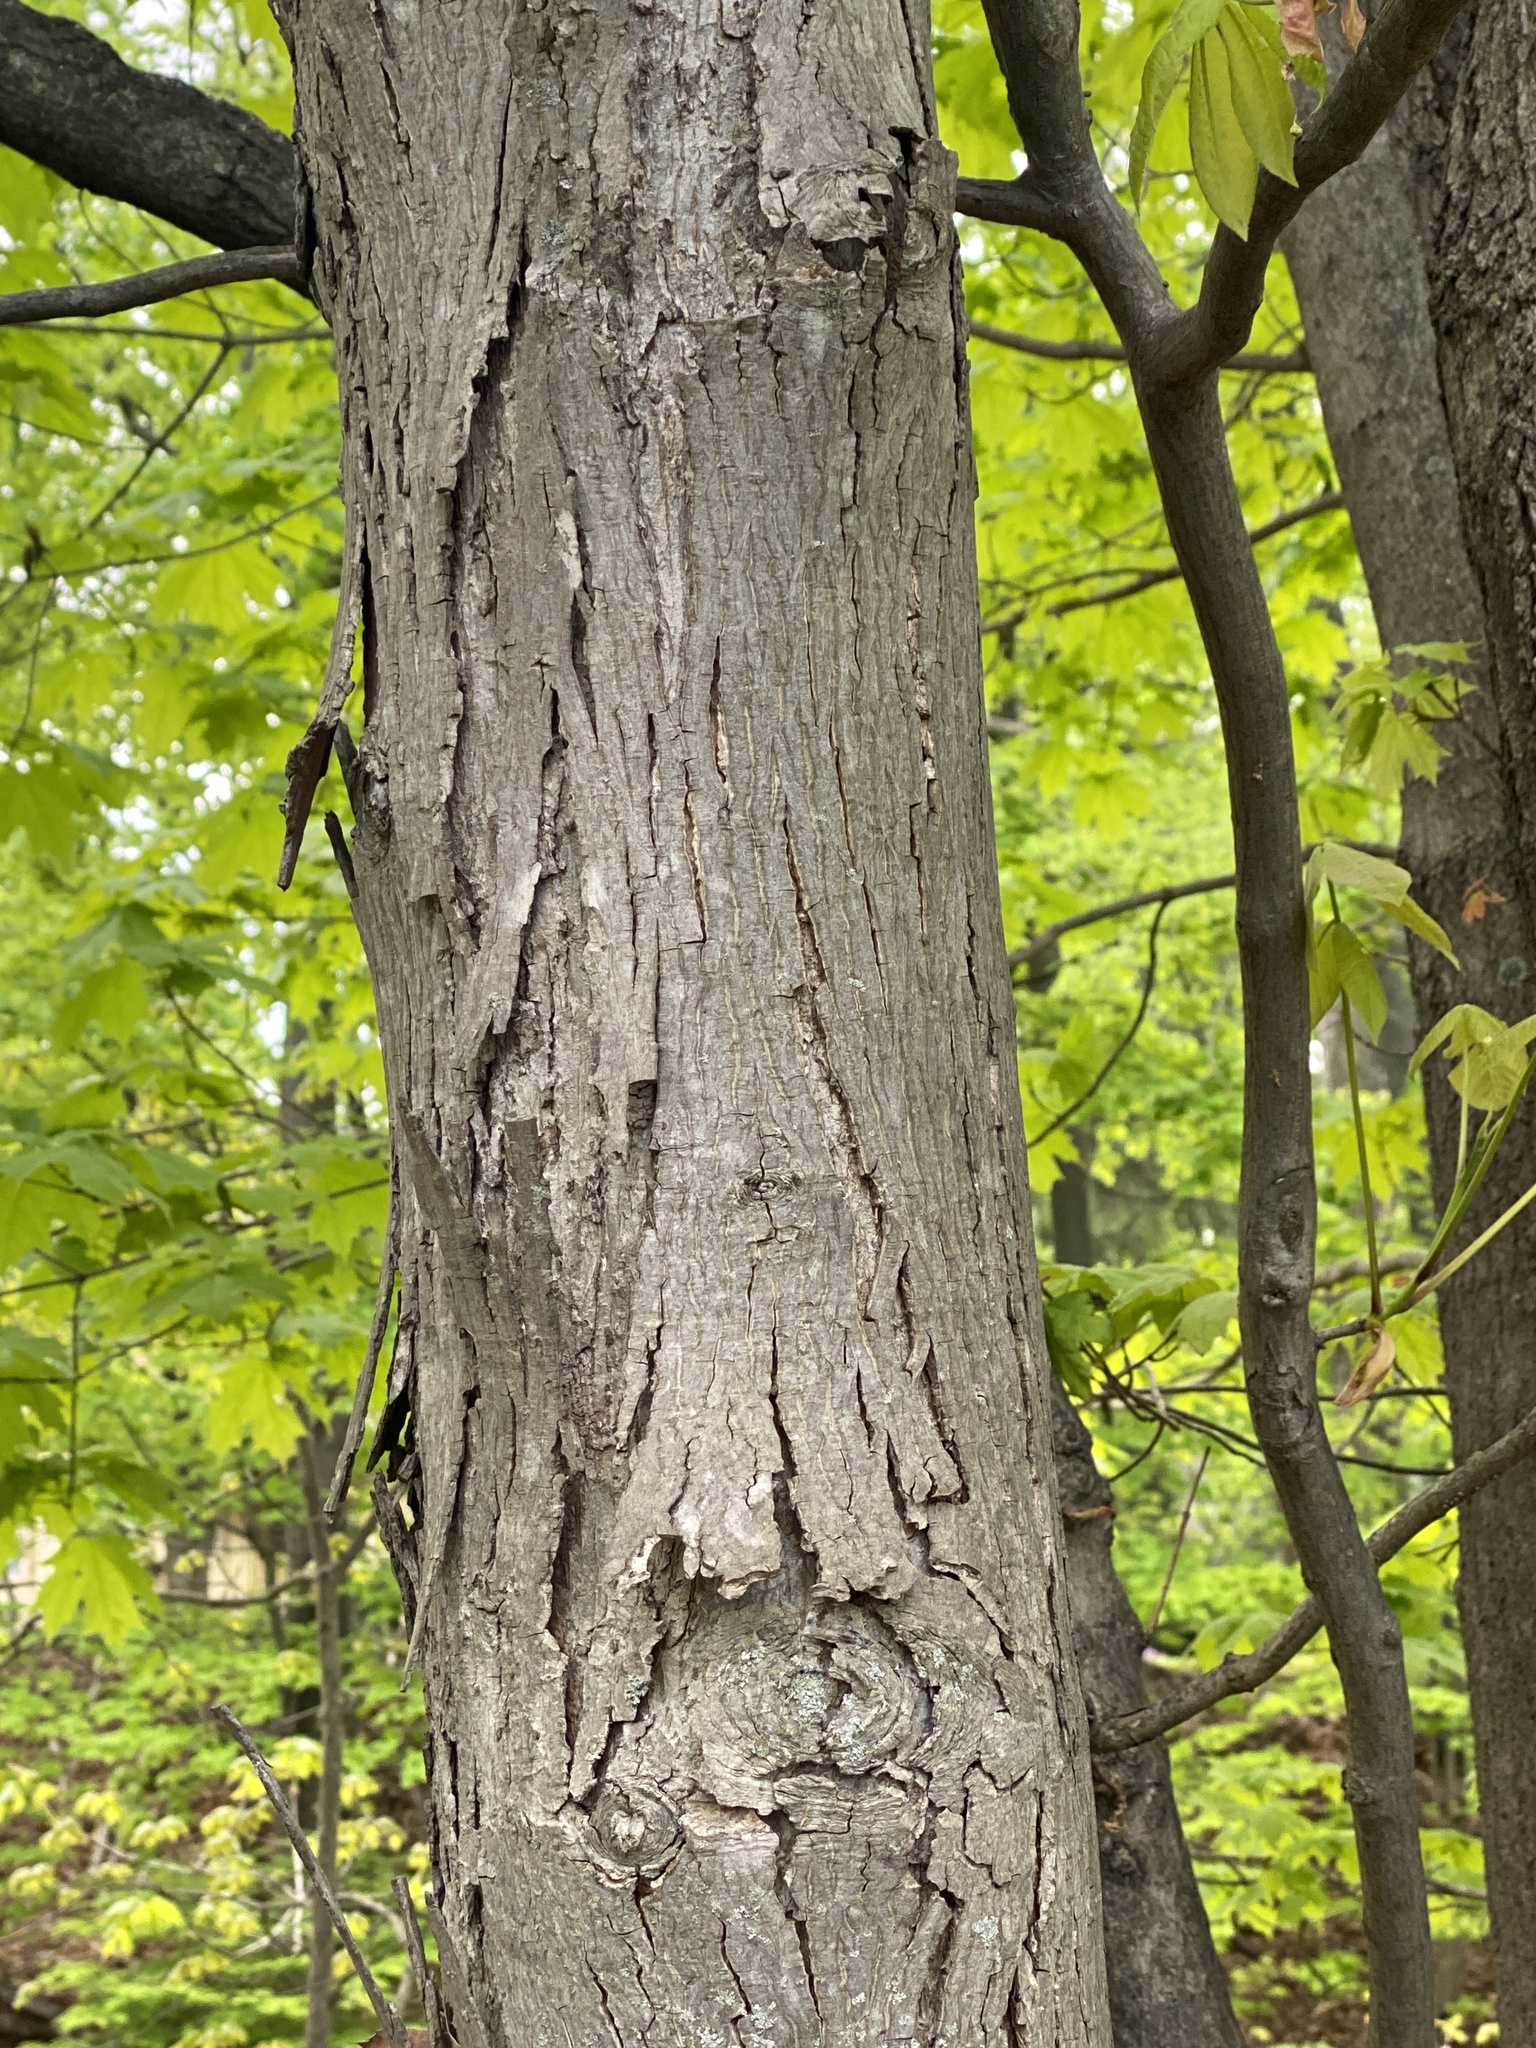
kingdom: Plantae
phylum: Tracheophyta
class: Magnoliopsida
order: Fagales
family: Juglandaceae
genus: Carya
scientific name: Carya ovata
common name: Shagbark hickory
